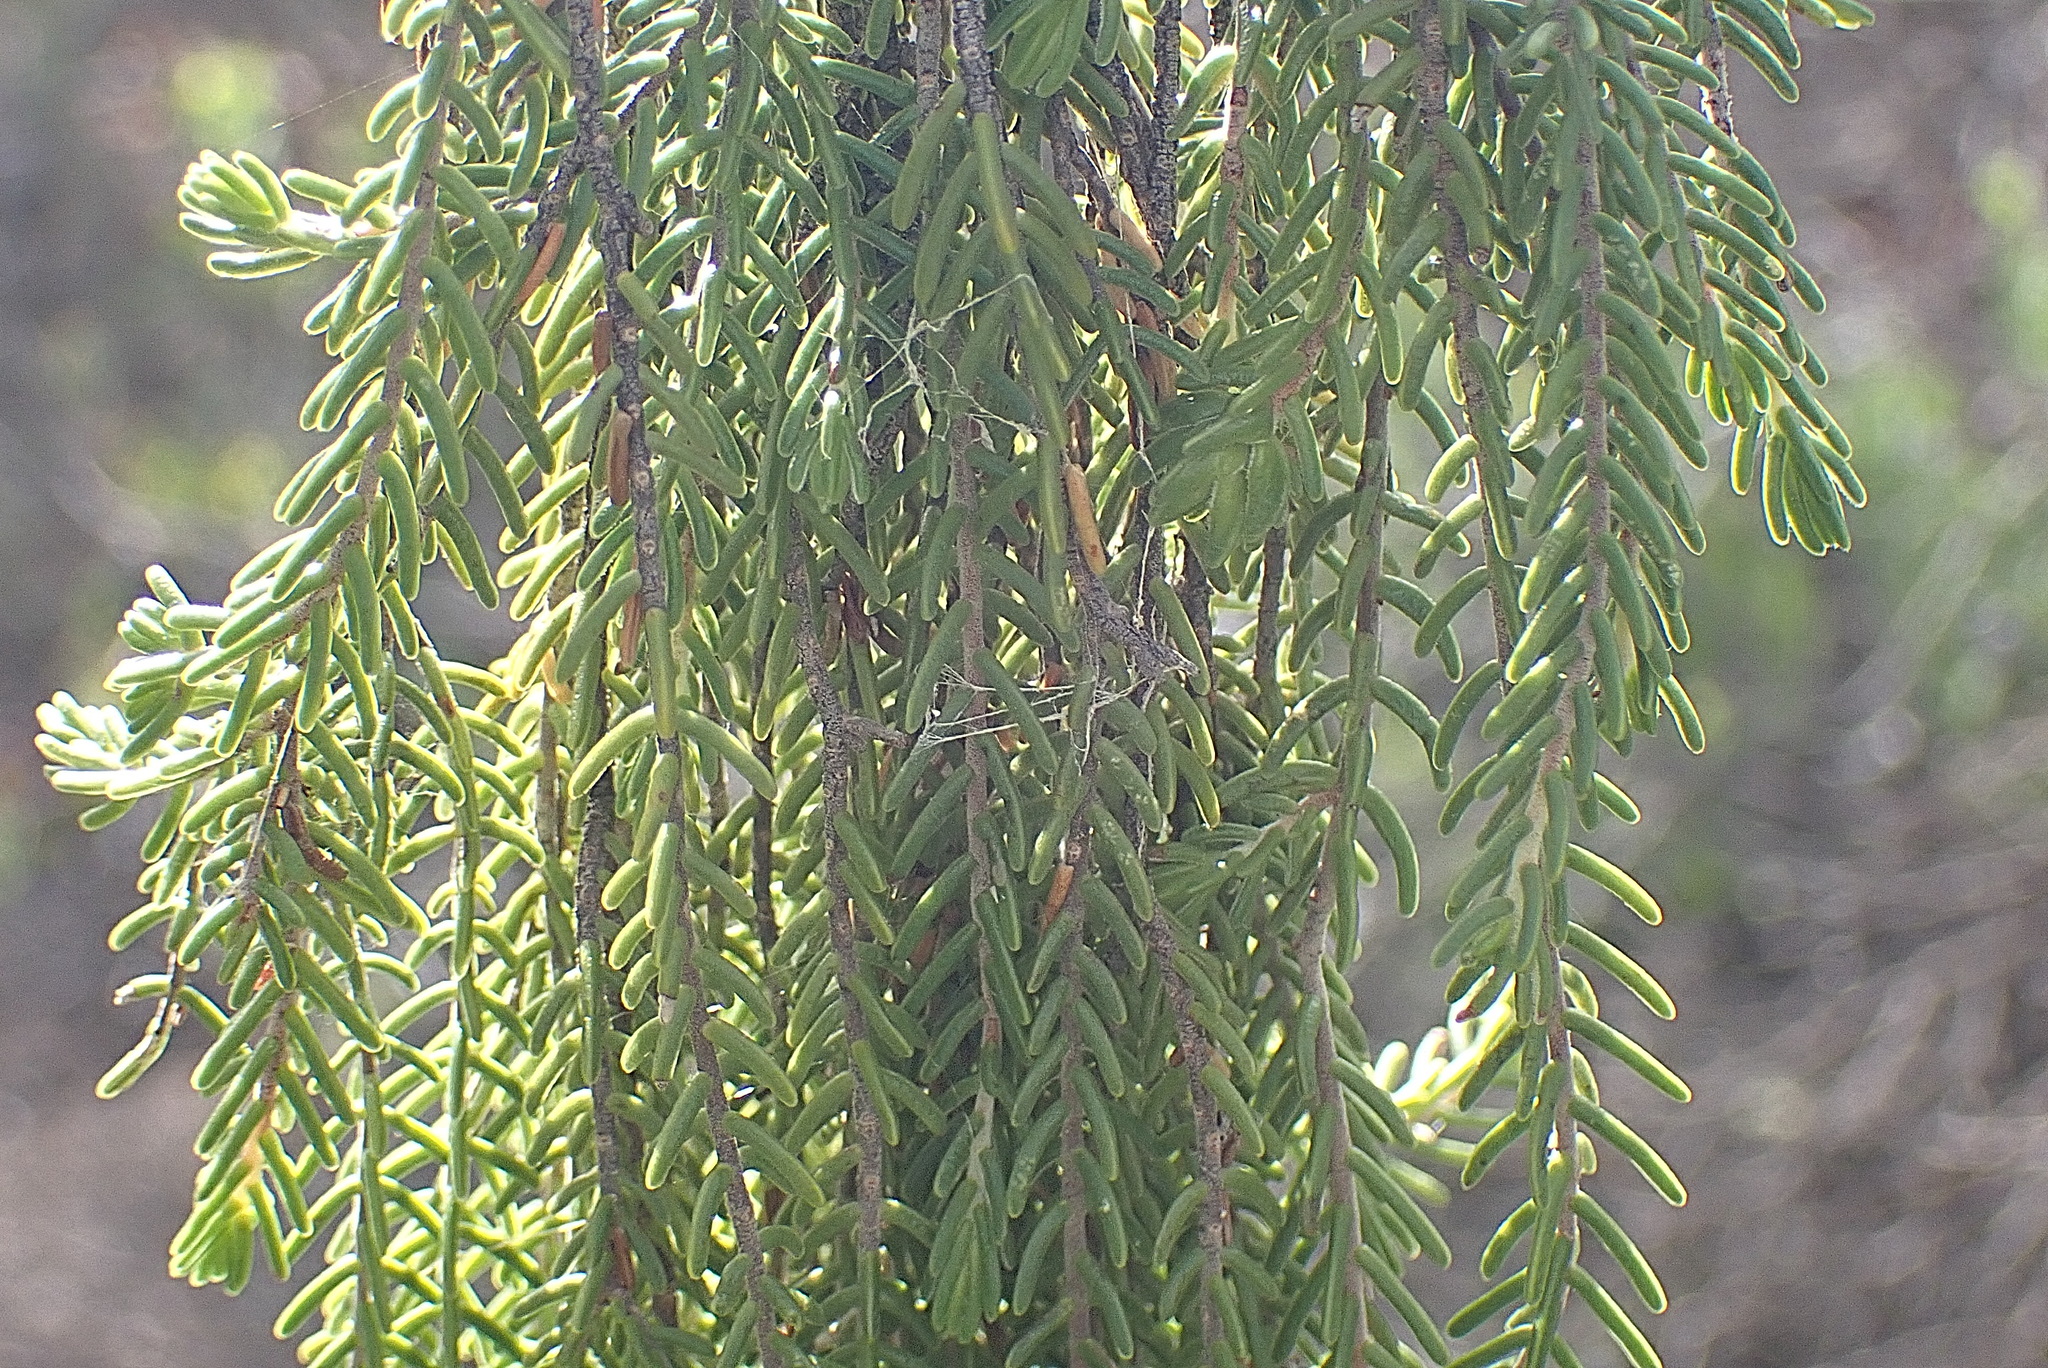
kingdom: Plantae
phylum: Tracheophyta
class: Magnoliopsida
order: Malvales
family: Thymelaeaceae
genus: Passerina
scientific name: Passerina obtusifolia
